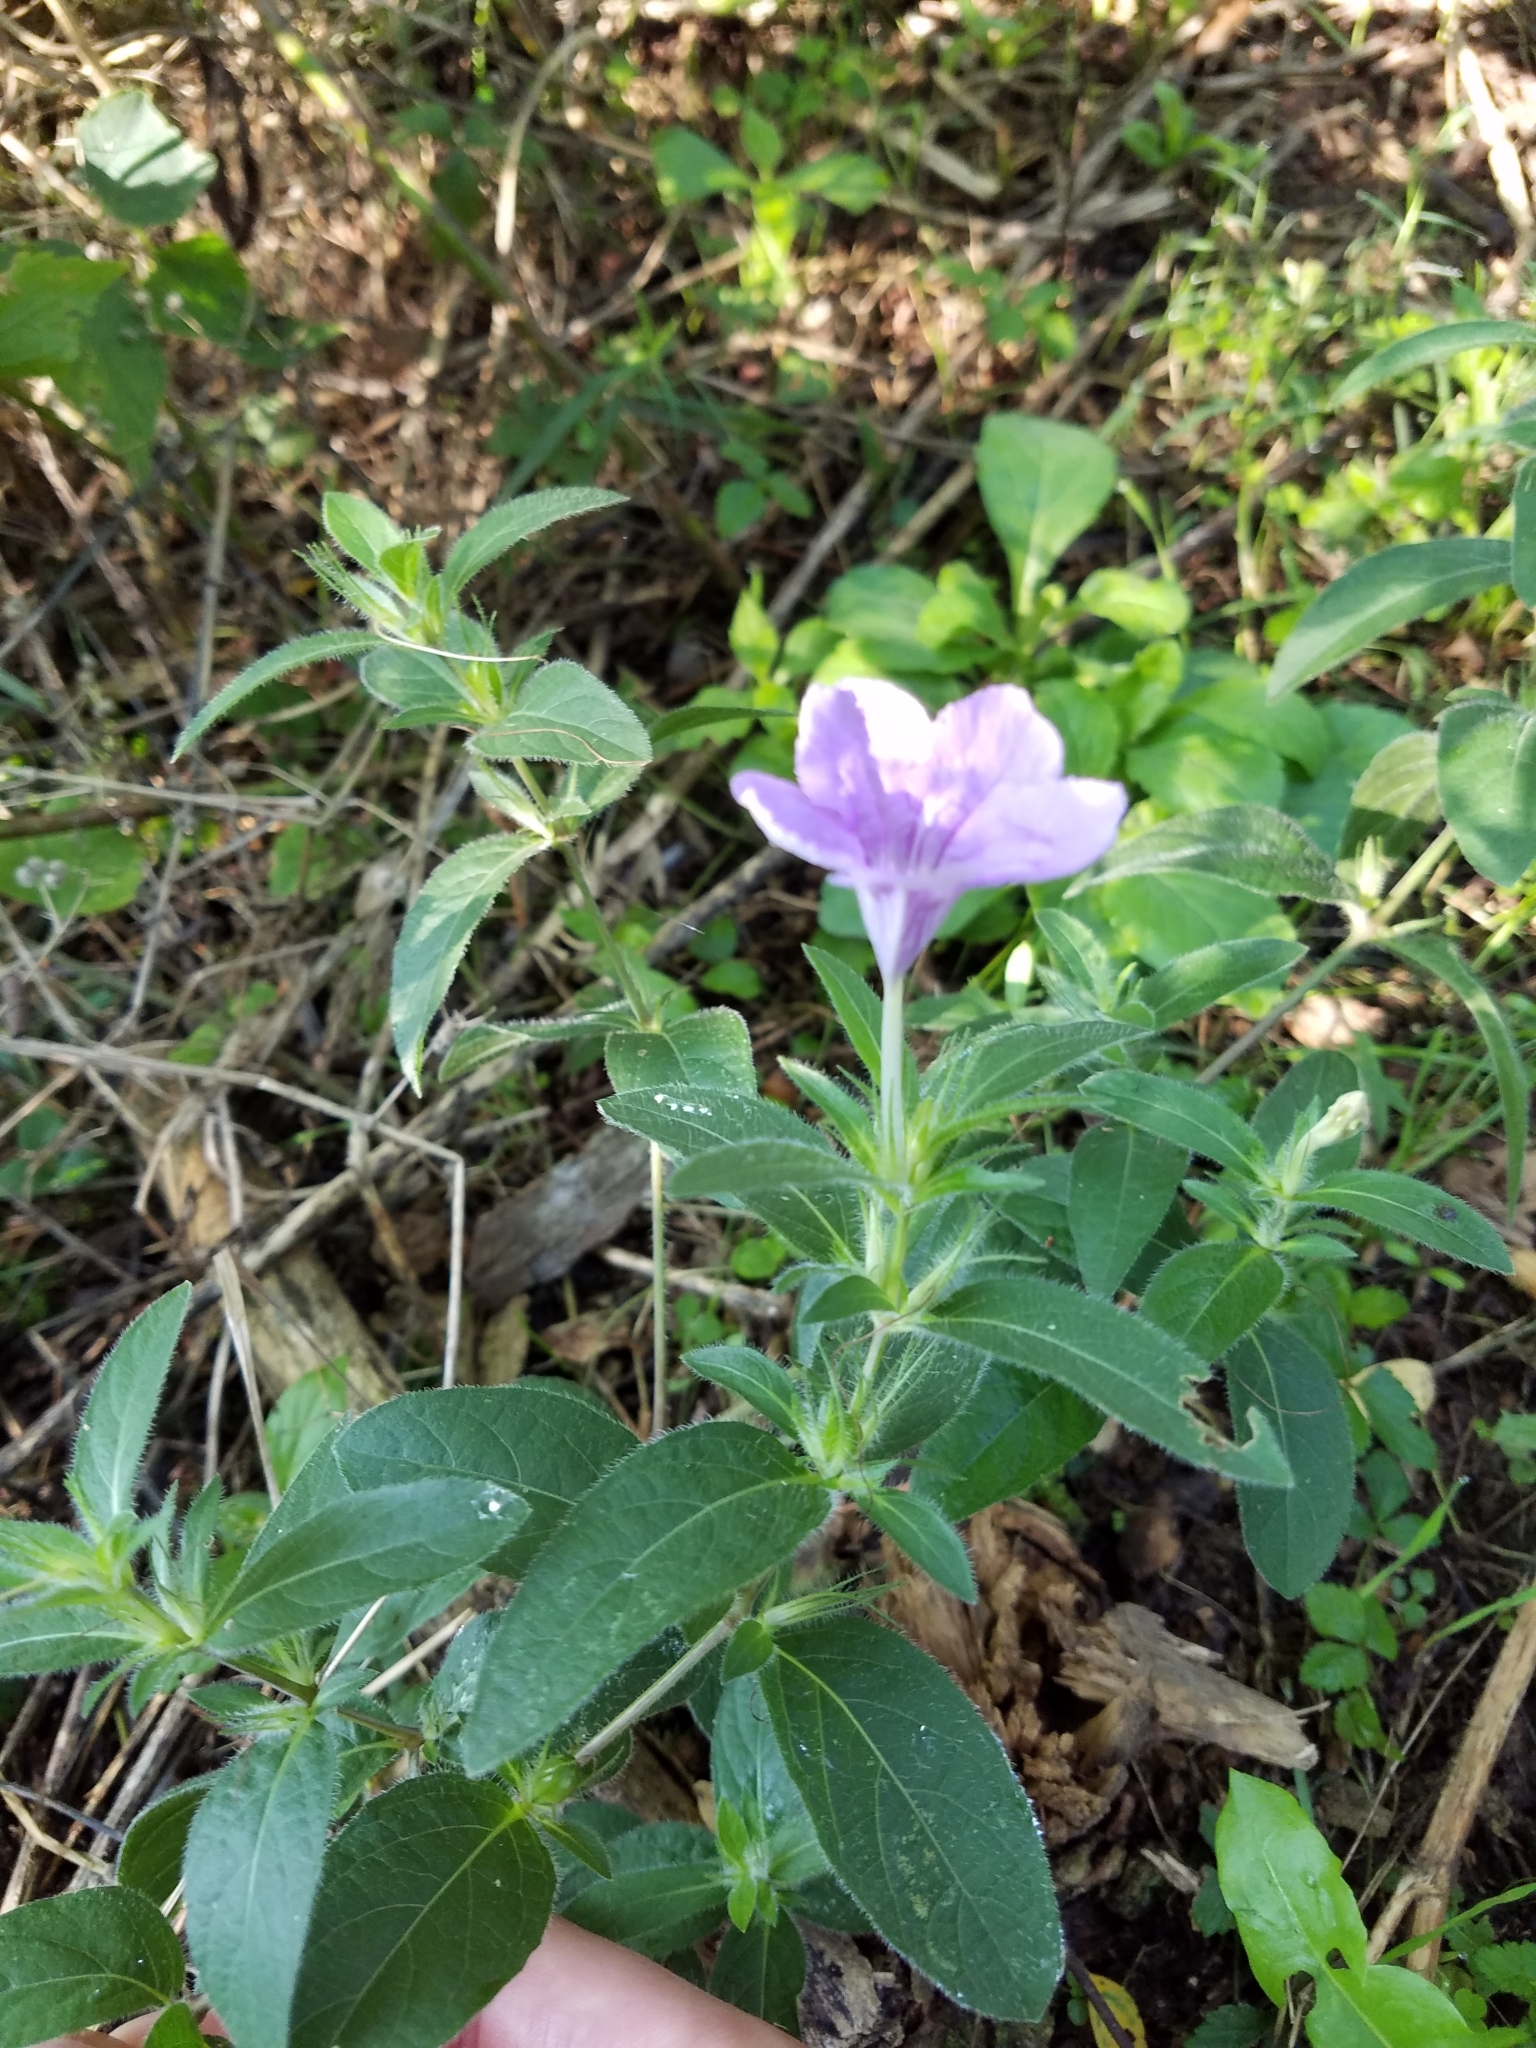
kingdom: Plantae
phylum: Tracheophyta
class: Magnoliopsida
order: Lamiales
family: Acanthaceae
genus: Ruellia
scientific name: Ruellia humilis
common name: Fringe-leaf ruellia
